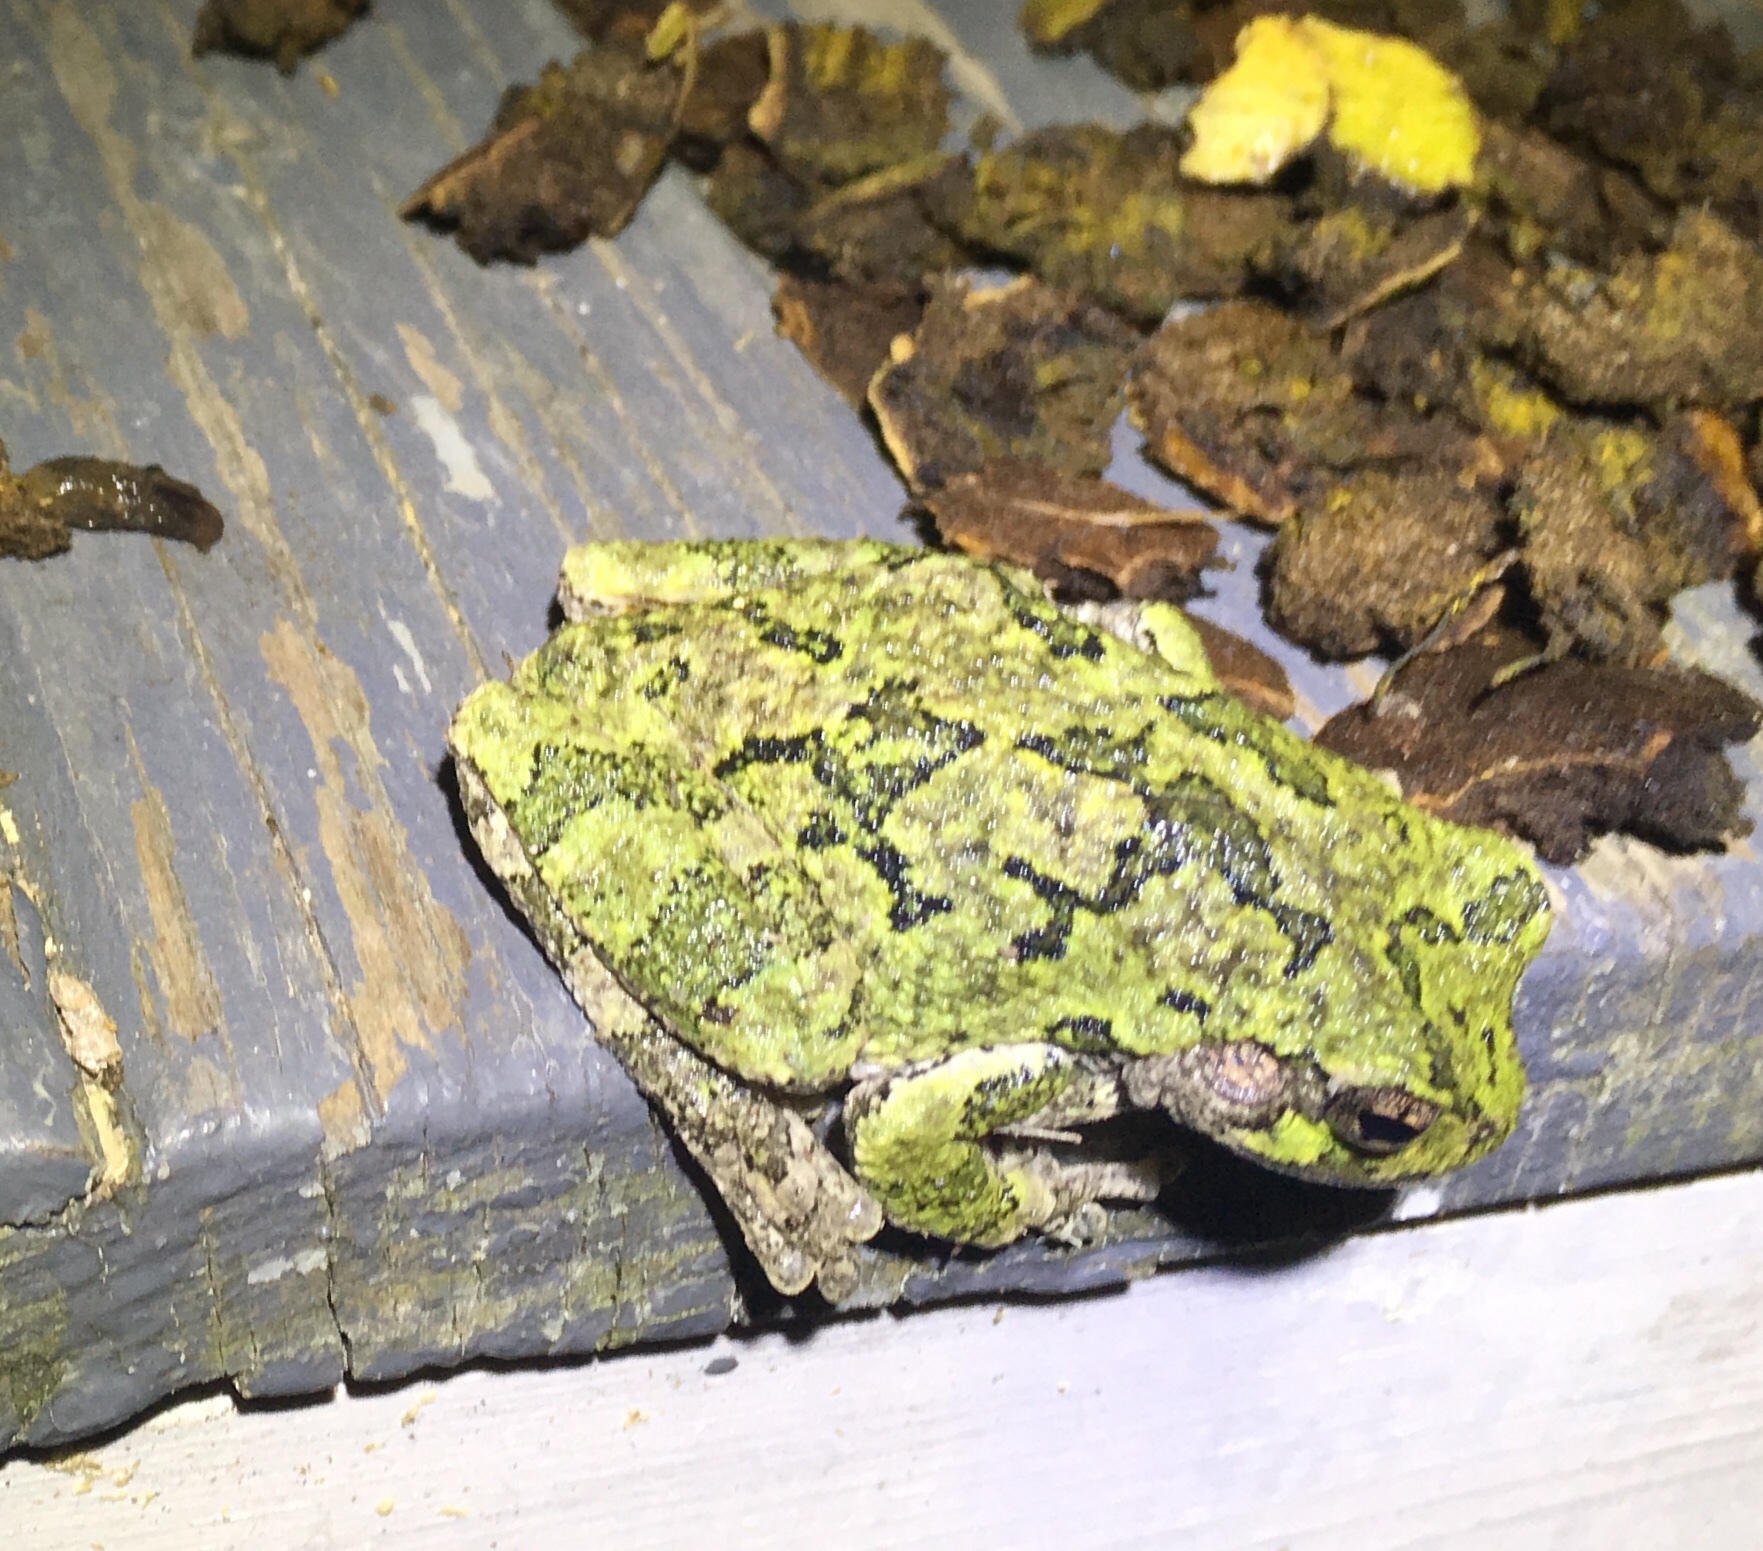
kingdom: Animalia
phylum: Chordata
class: Amphibia
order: Anura
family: Hylidae
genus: Hyla
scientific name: Hyla
